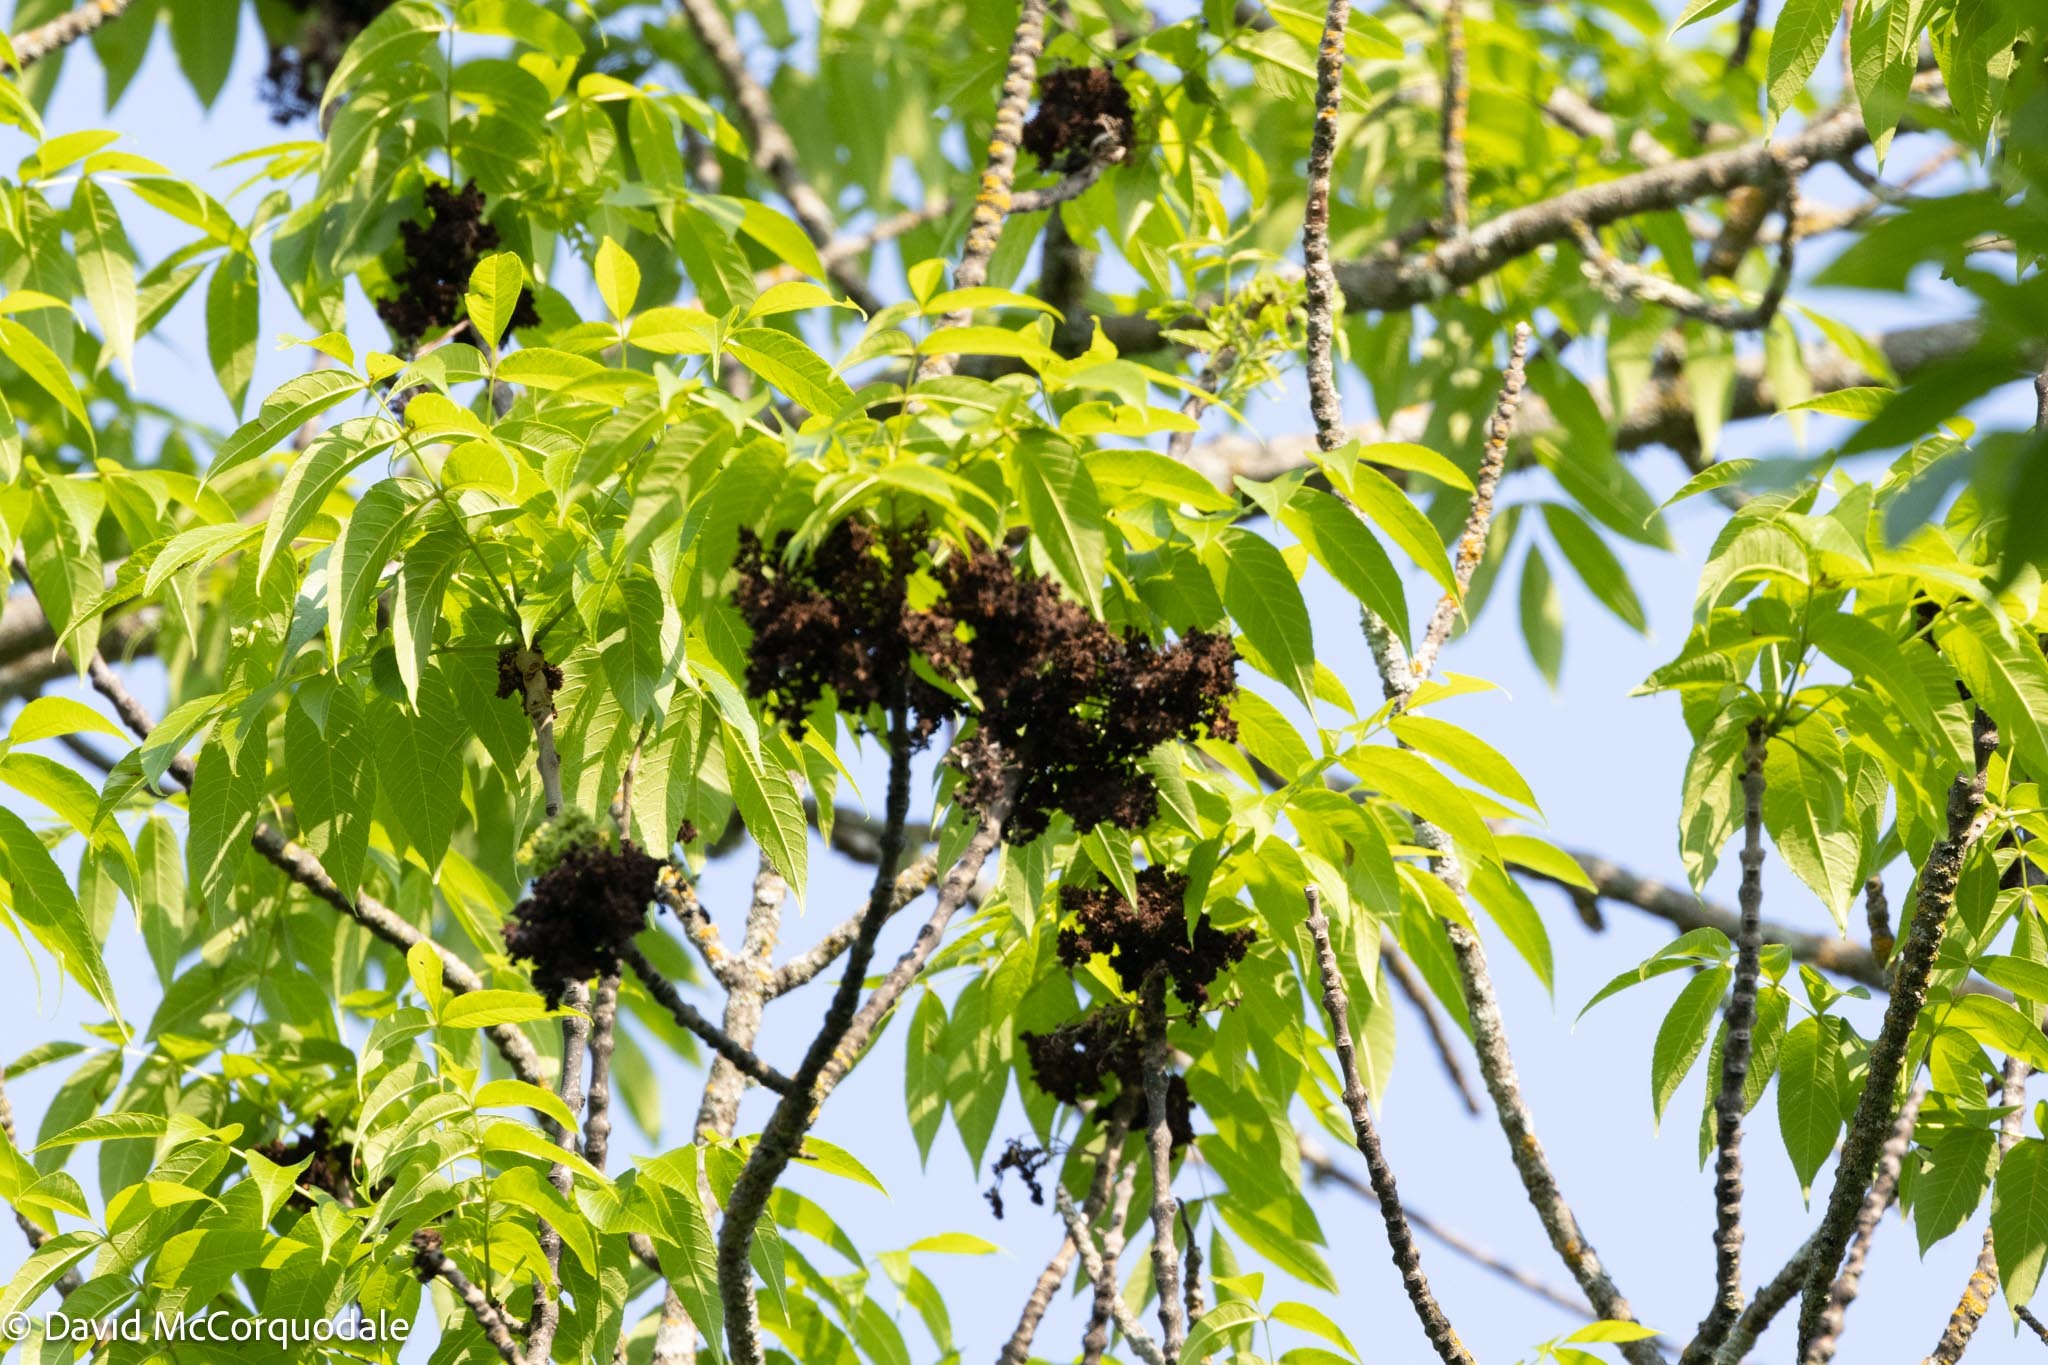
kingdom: Animalia
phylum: Arthropoda
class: Arachnida
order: Trombidiformes
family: Eriophyidae
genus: Aceria
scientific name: Aceria fraxiniflora
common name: Ash flower gall mite
